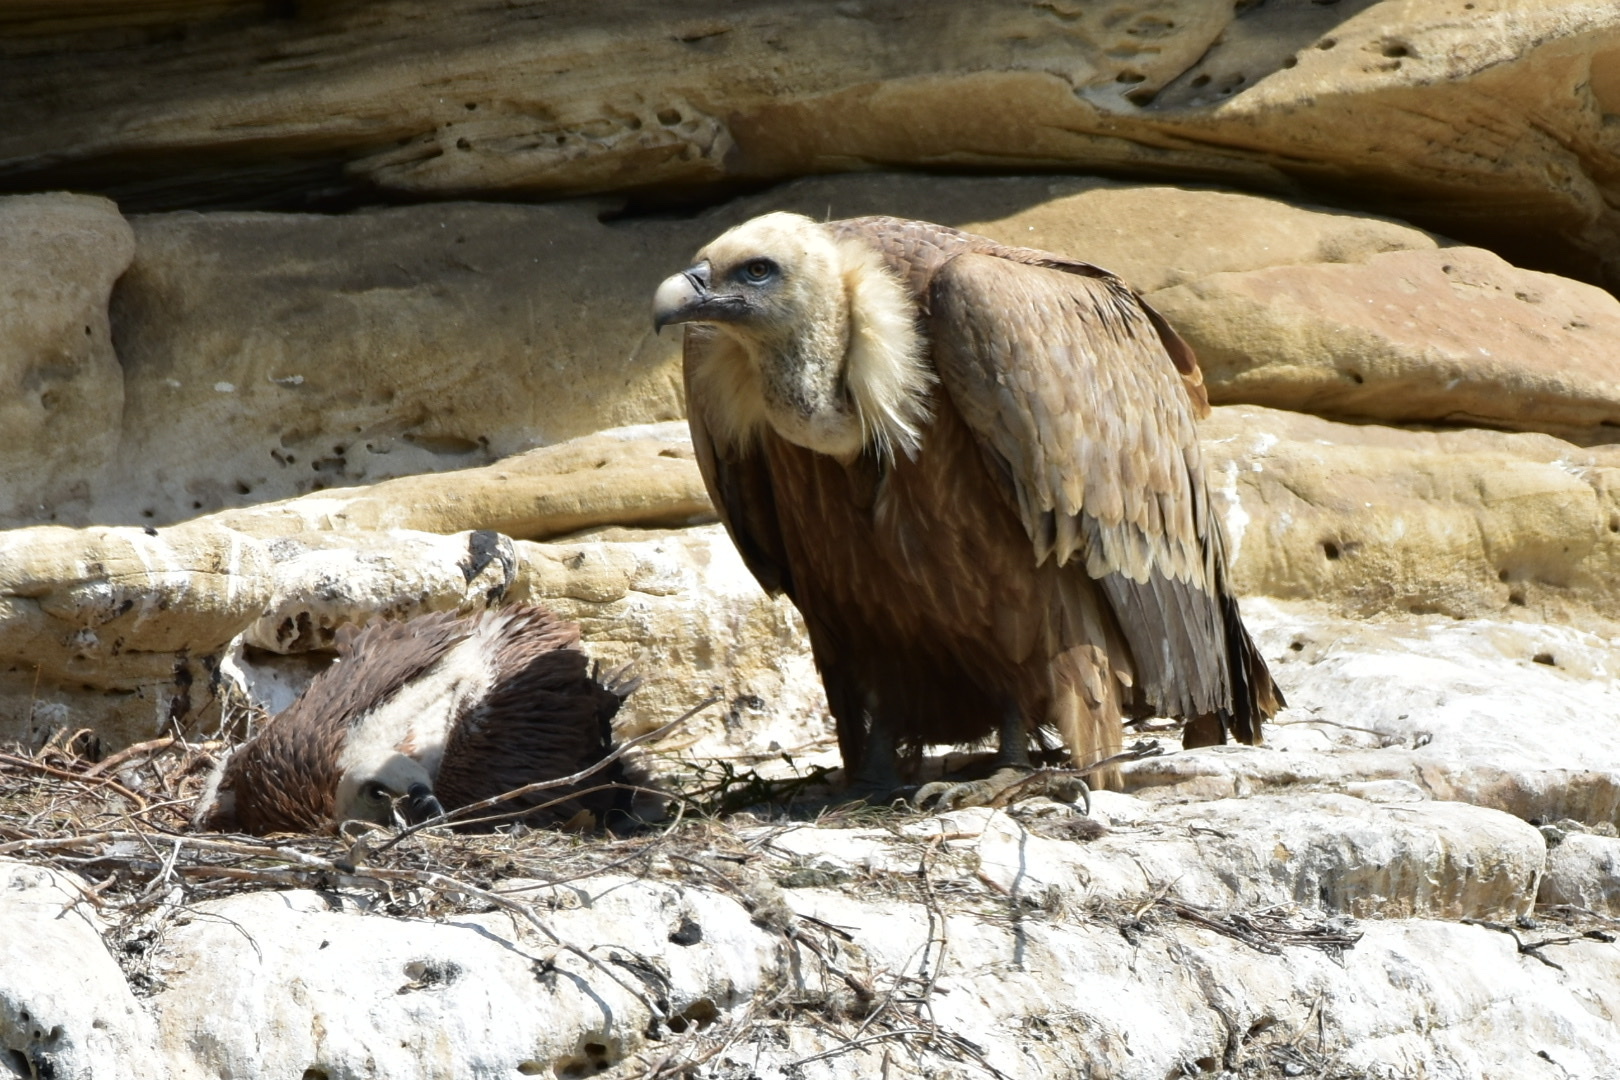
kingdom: Animalia
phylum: Chordata
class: Aves
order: Accipitriformes
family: Accipitridae
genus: Gyps
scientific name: Gyps fulvus
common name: Griffon vulture
